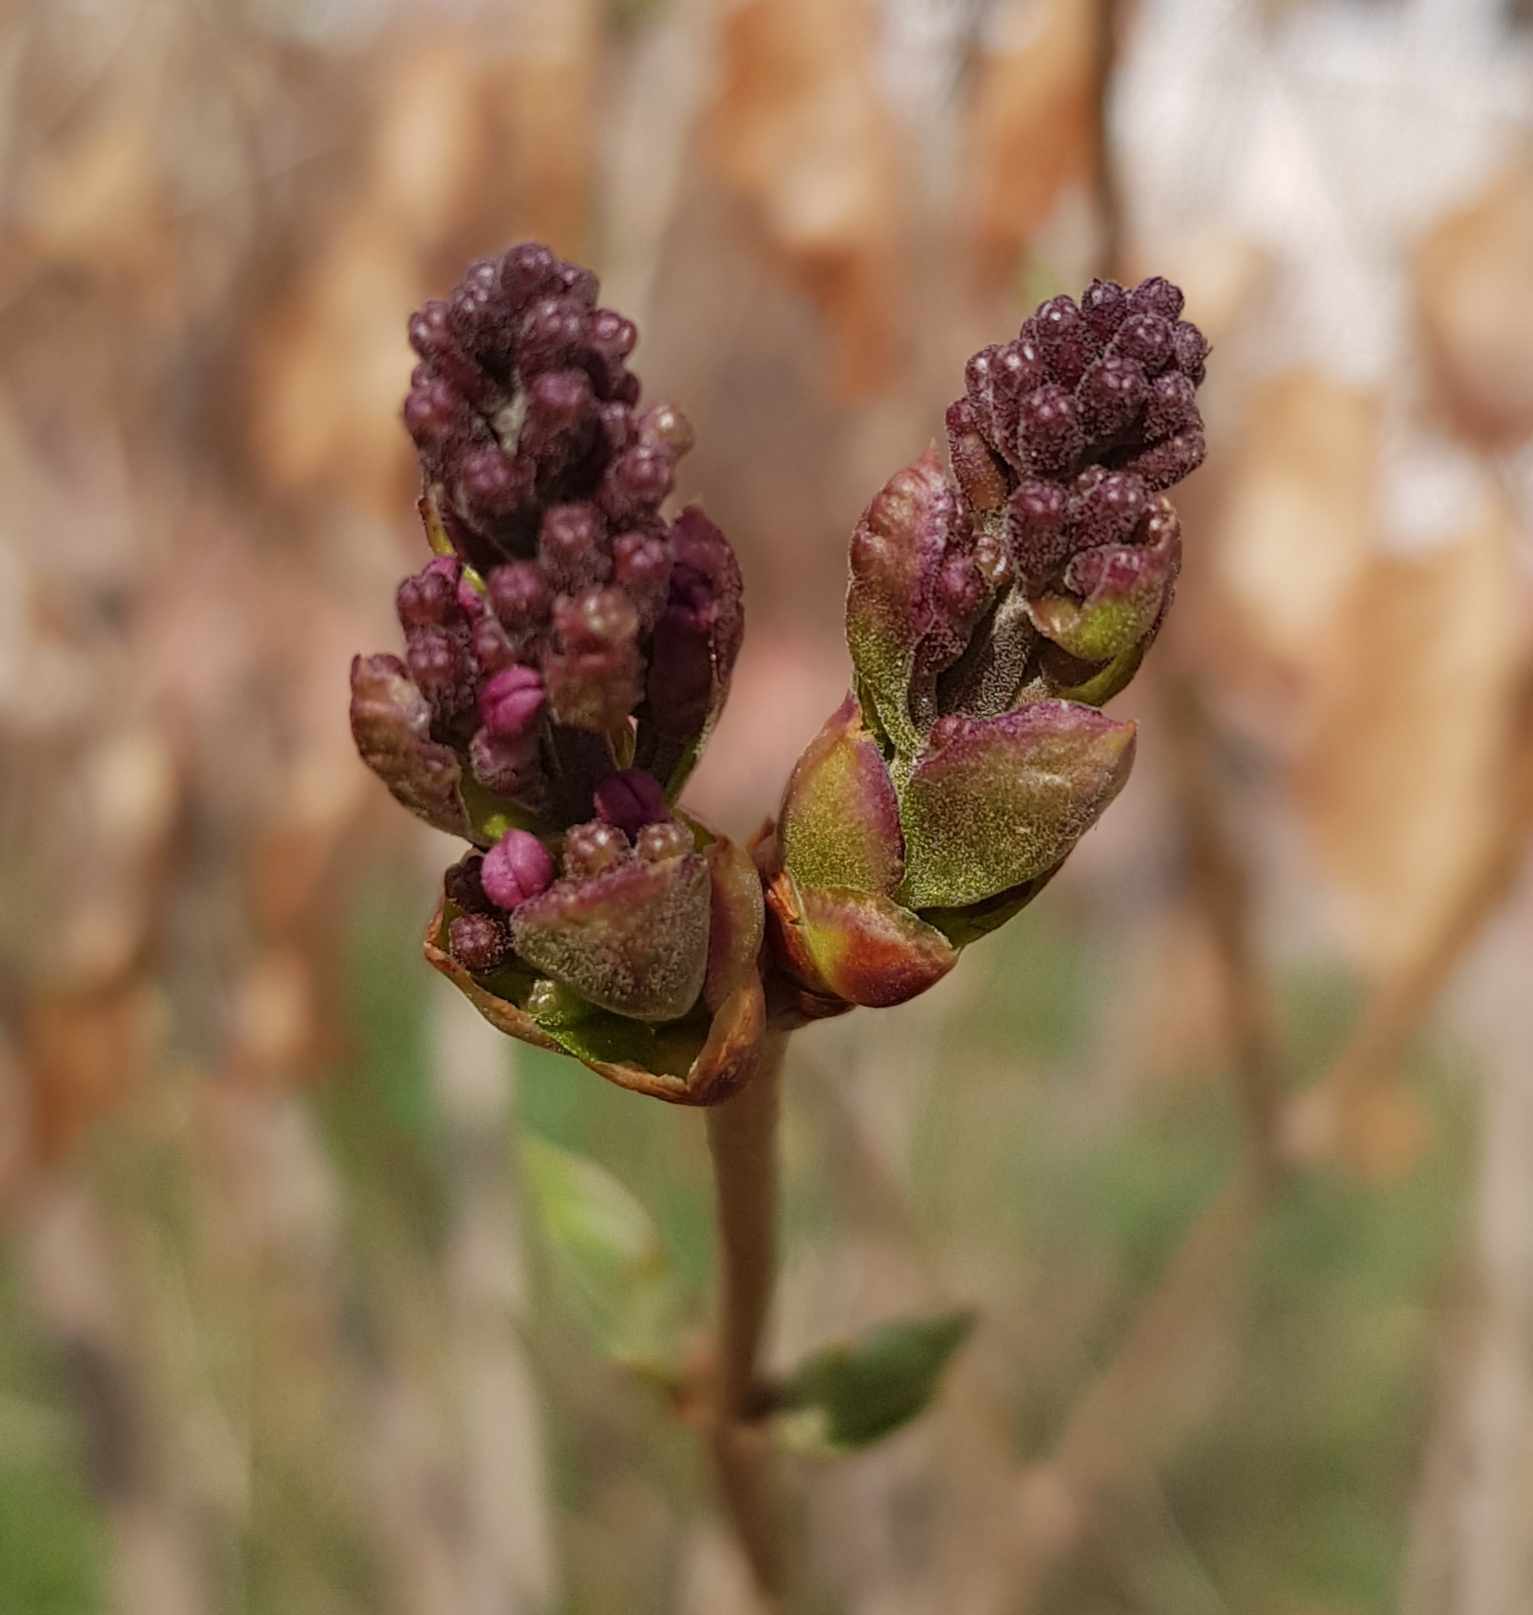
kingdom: Plantae
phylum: Tracheophyta
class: Magnoliopsida
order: Lamiales
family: Oleaceae
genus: Syringa
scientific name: Syringa vulgaris
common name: Common lilac
